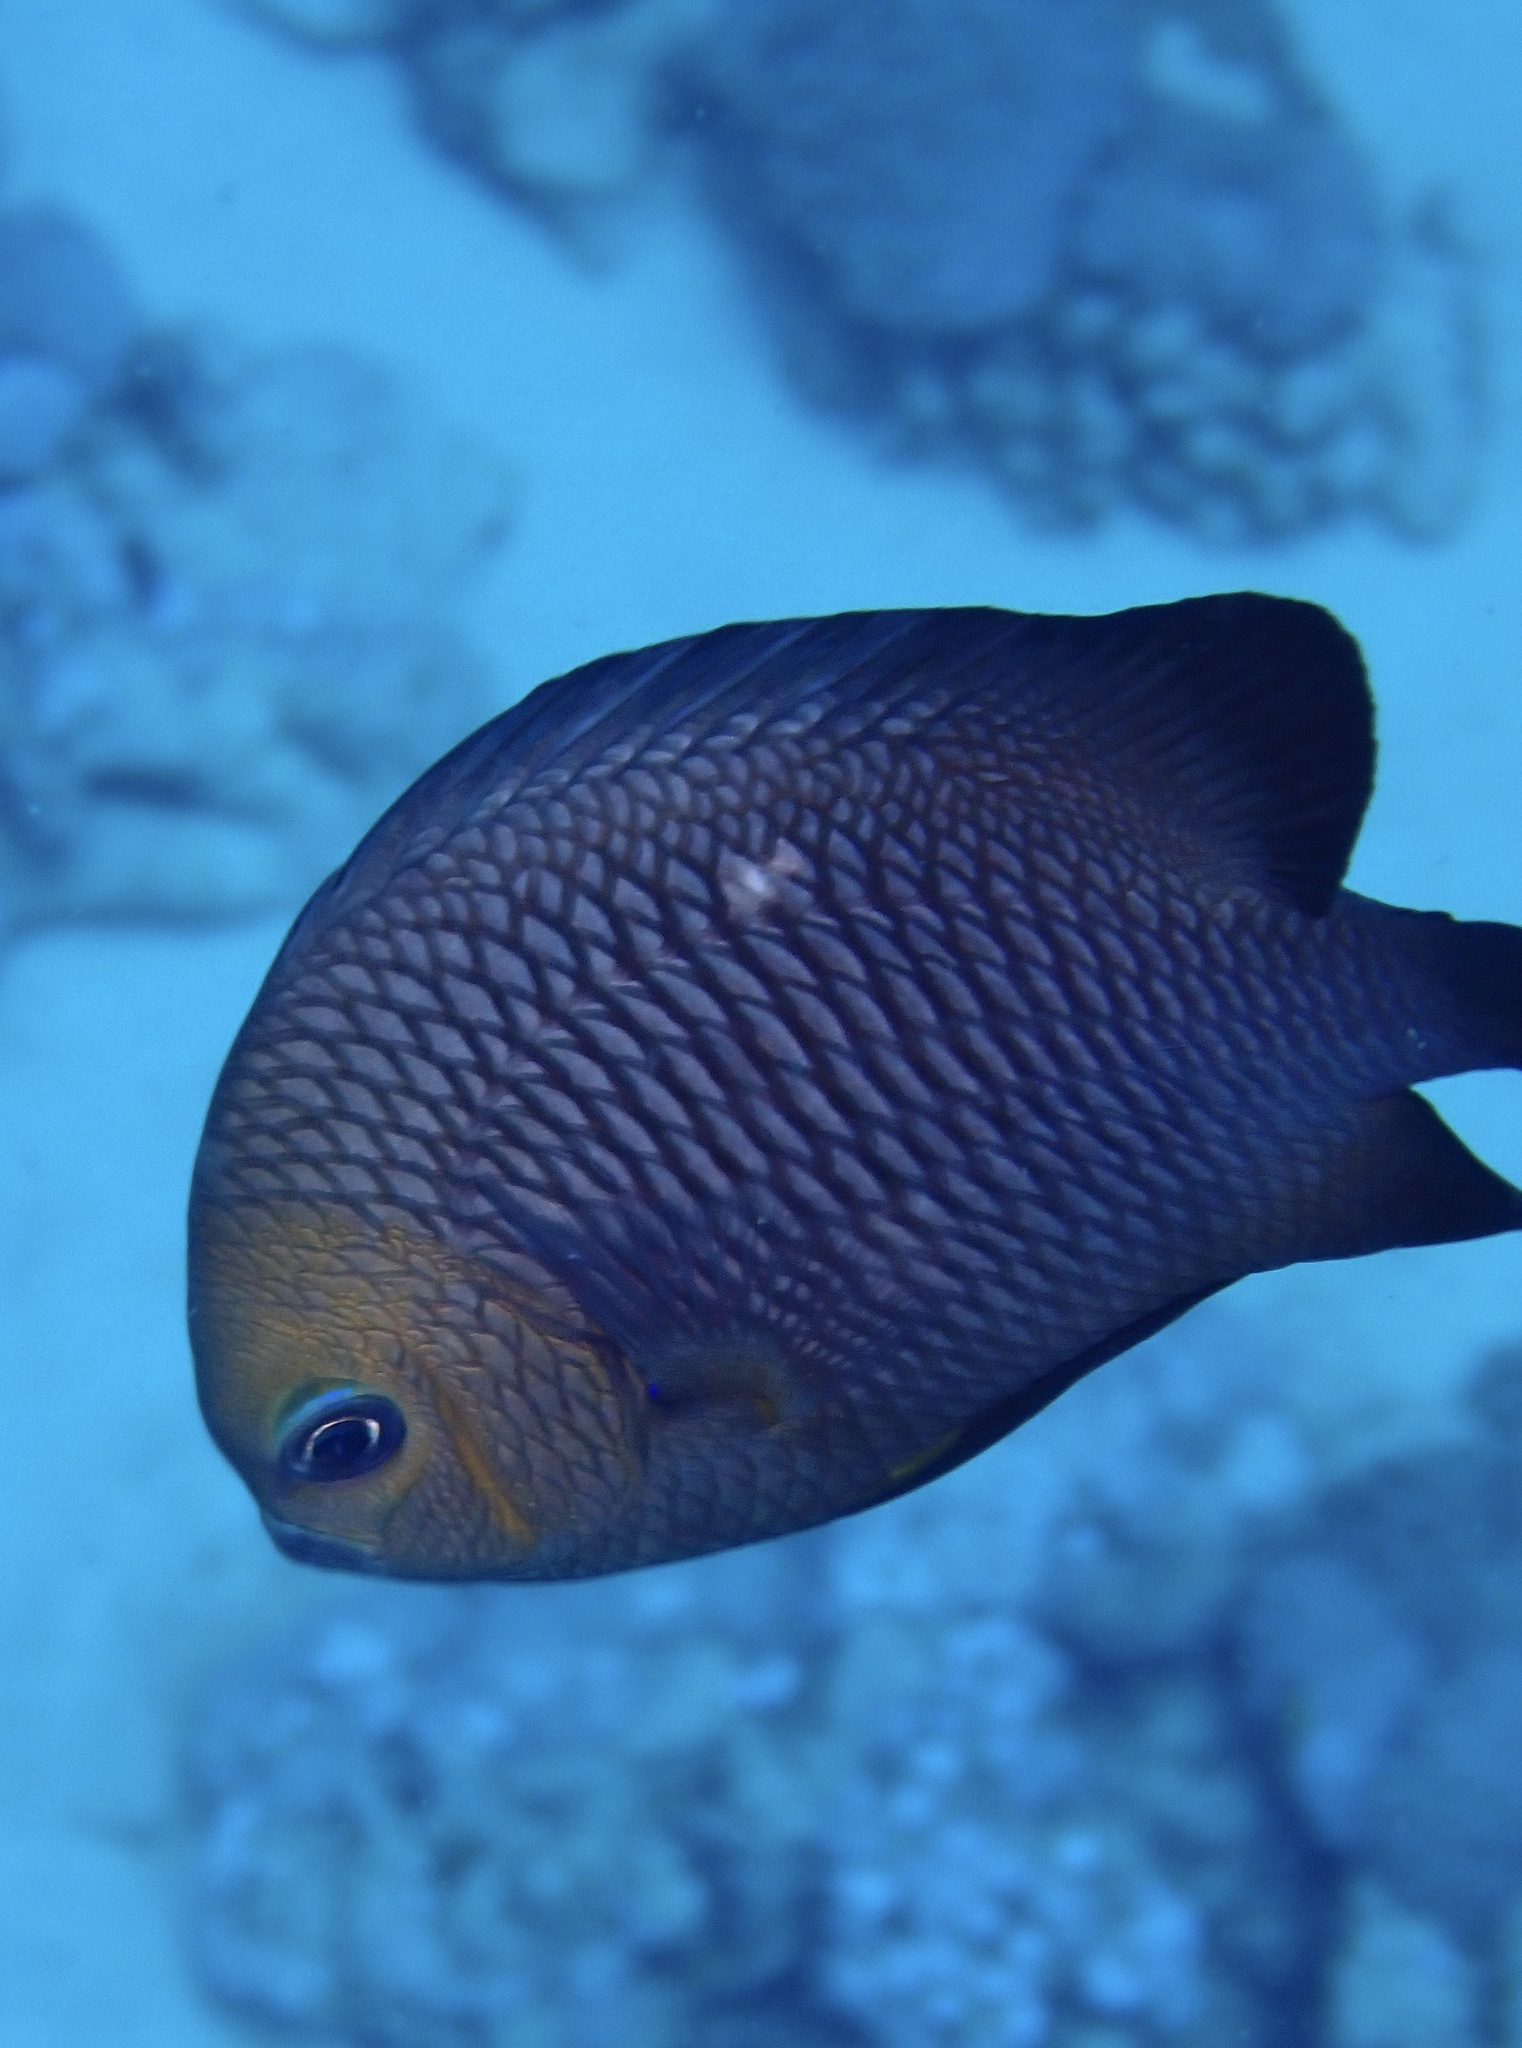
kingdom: Animalia
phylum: Chordata
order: Perciformes
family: Pomacentridae
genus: Dascyllus
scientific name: Dascyllus trimaculatus
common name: Threespot dascyllus
